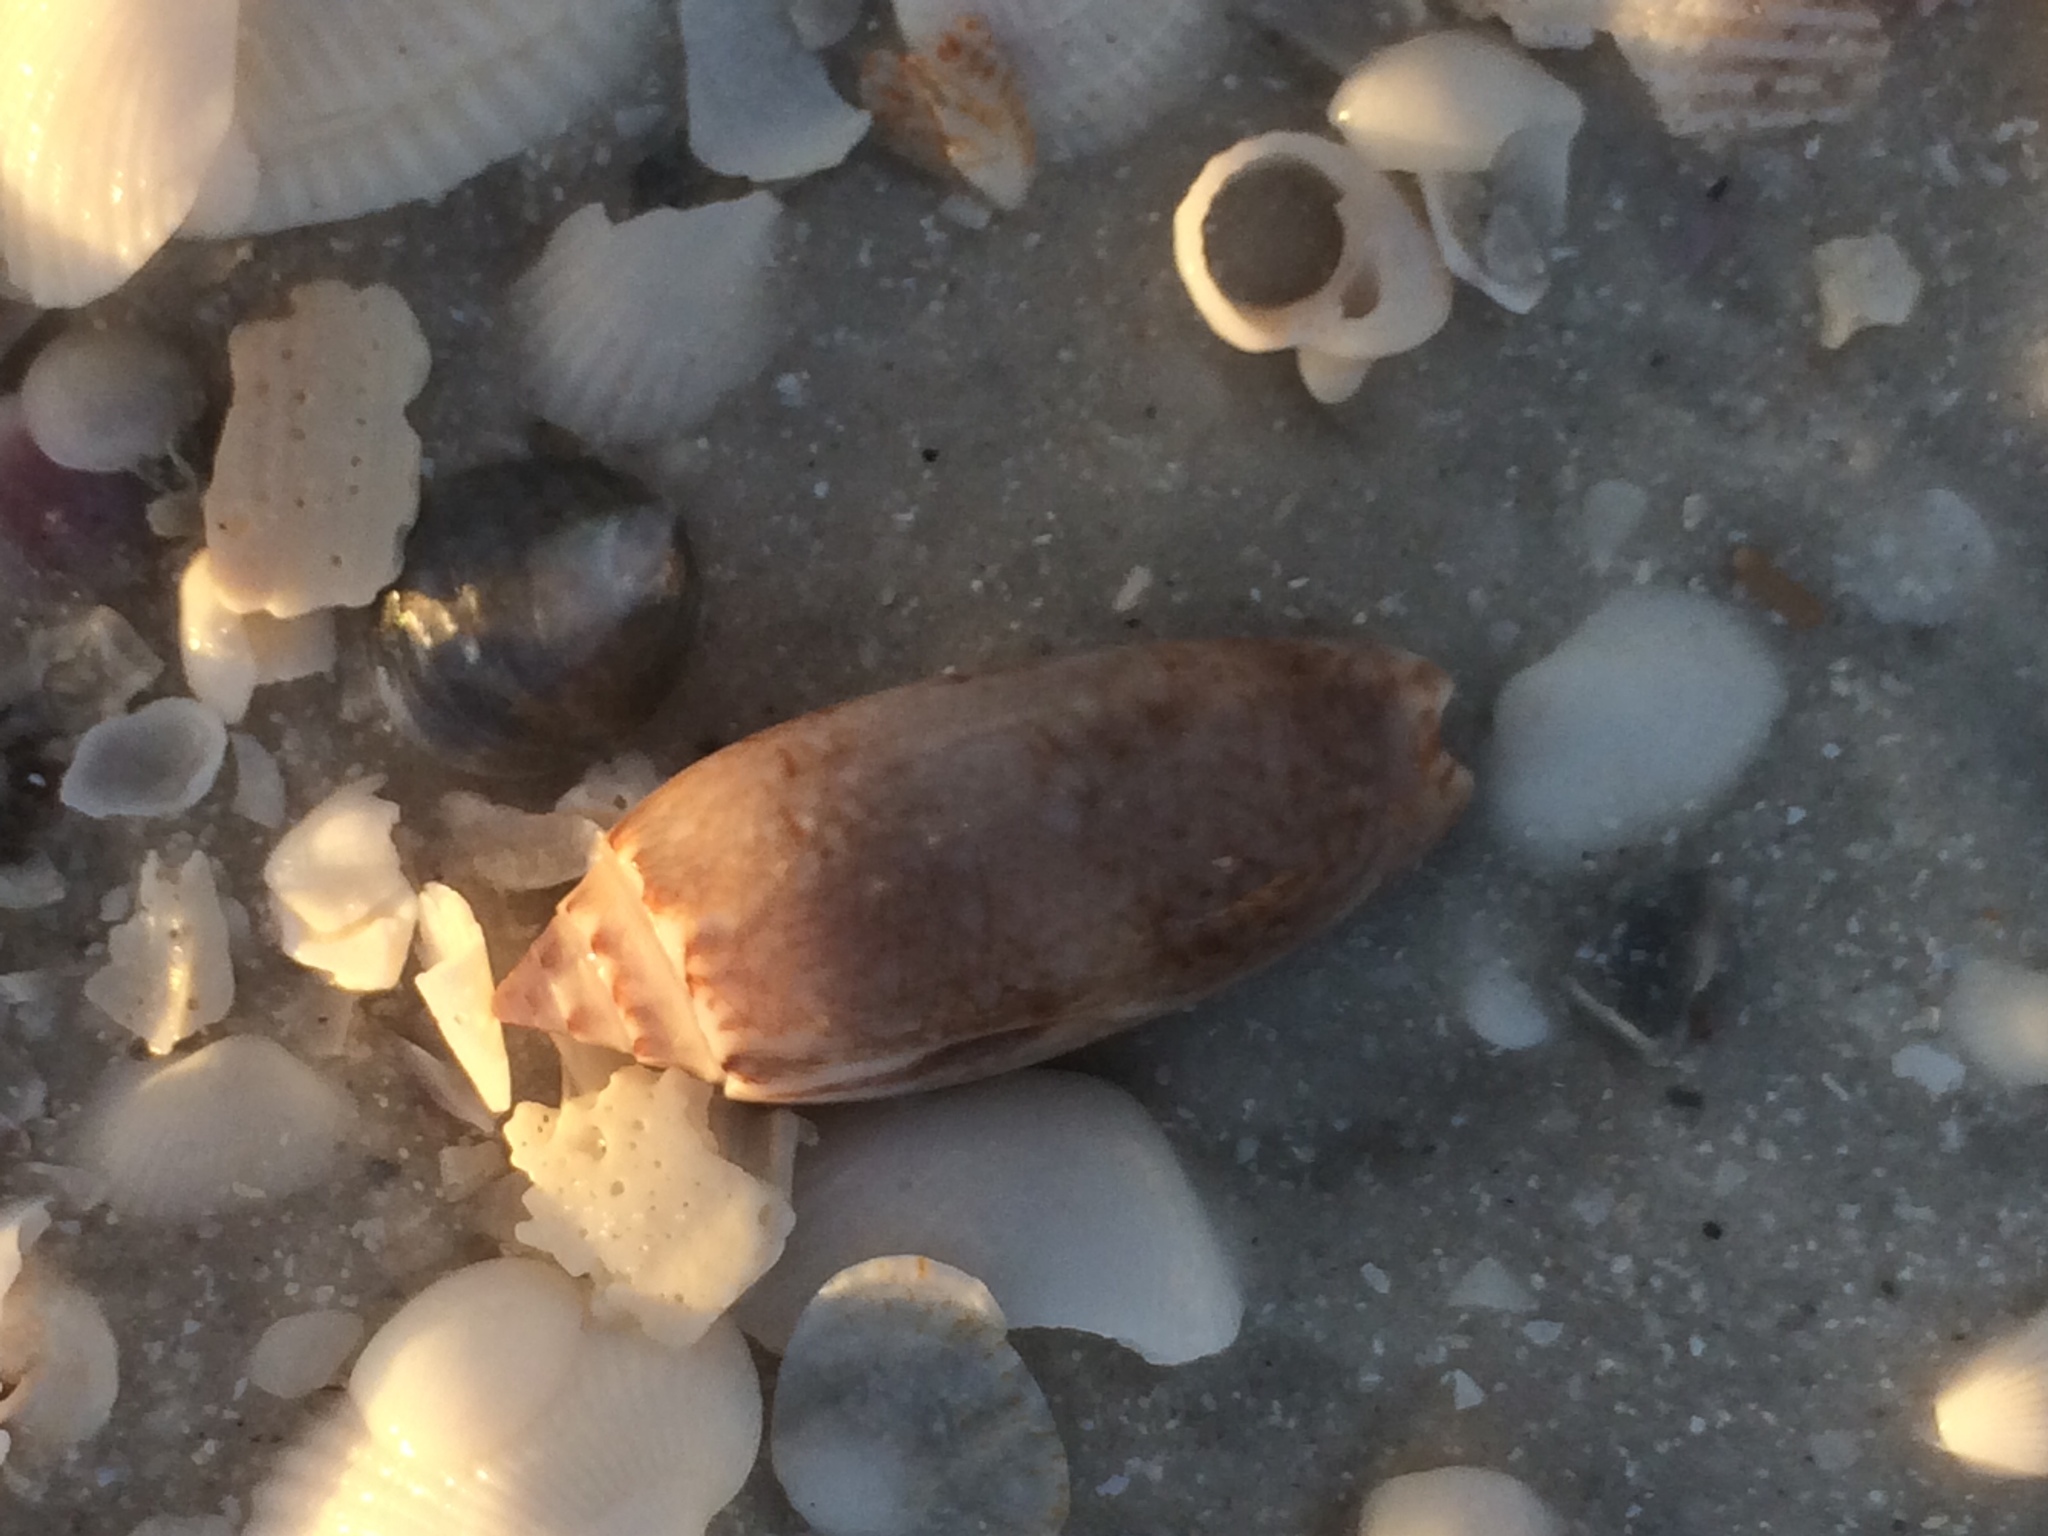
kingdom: Animalia
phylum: Mollusca
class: Gastropoda
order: Neogastropoda
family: Olividae
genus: Oliva
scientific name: Oliva sayana
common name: Lettered olive
